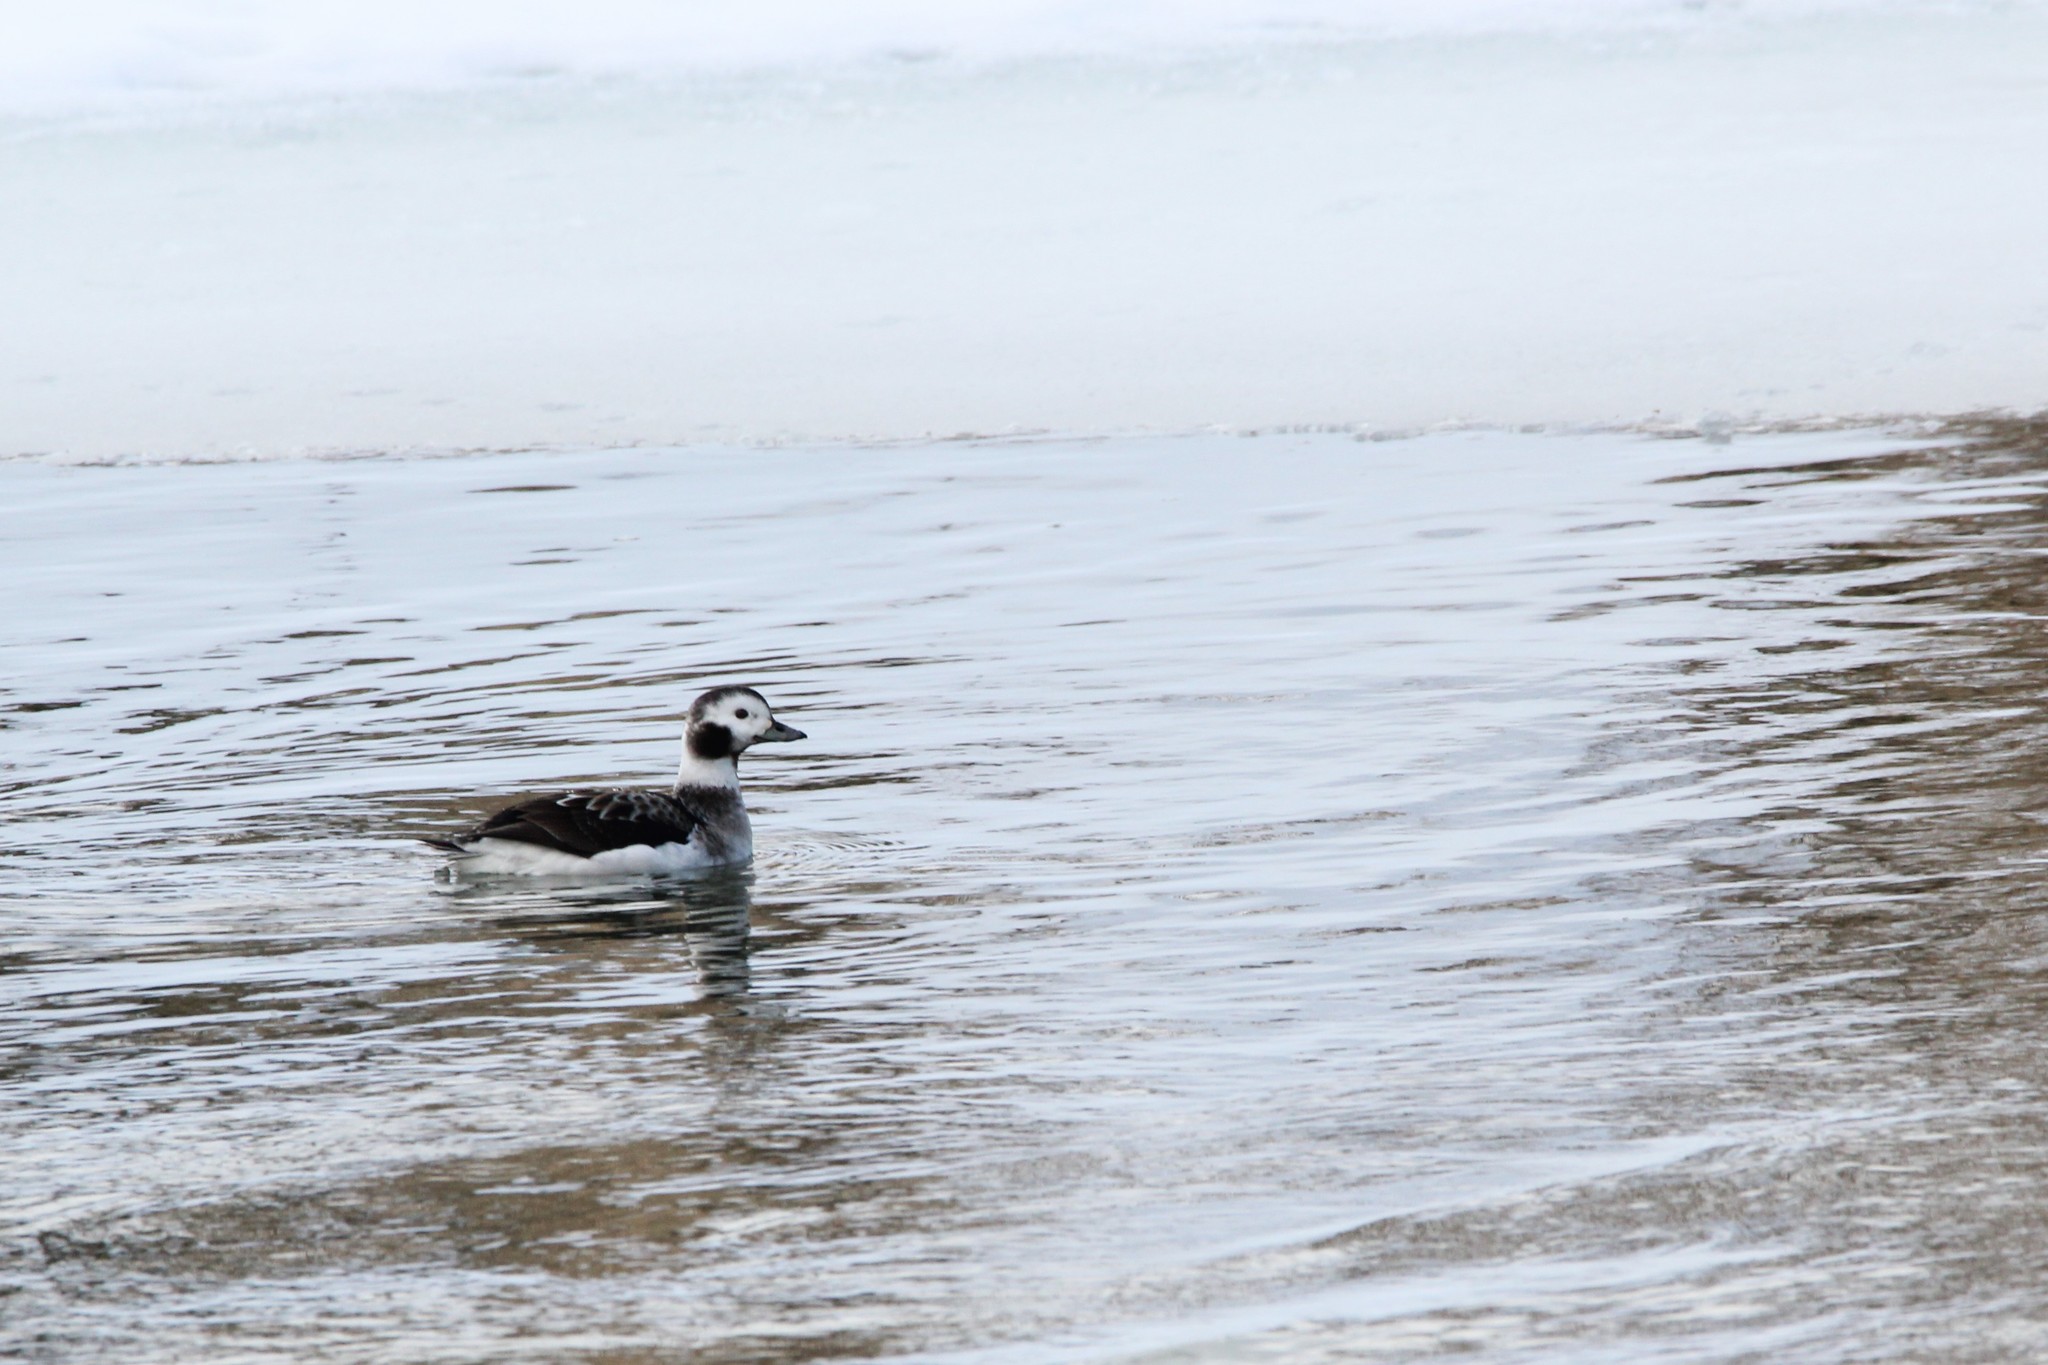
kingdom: Animalia
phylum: Chordata
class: Aves
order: Anseriformes
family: Anatidae
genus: Clangula
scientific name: Clangula hyemalis
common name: Long-tailed duck
